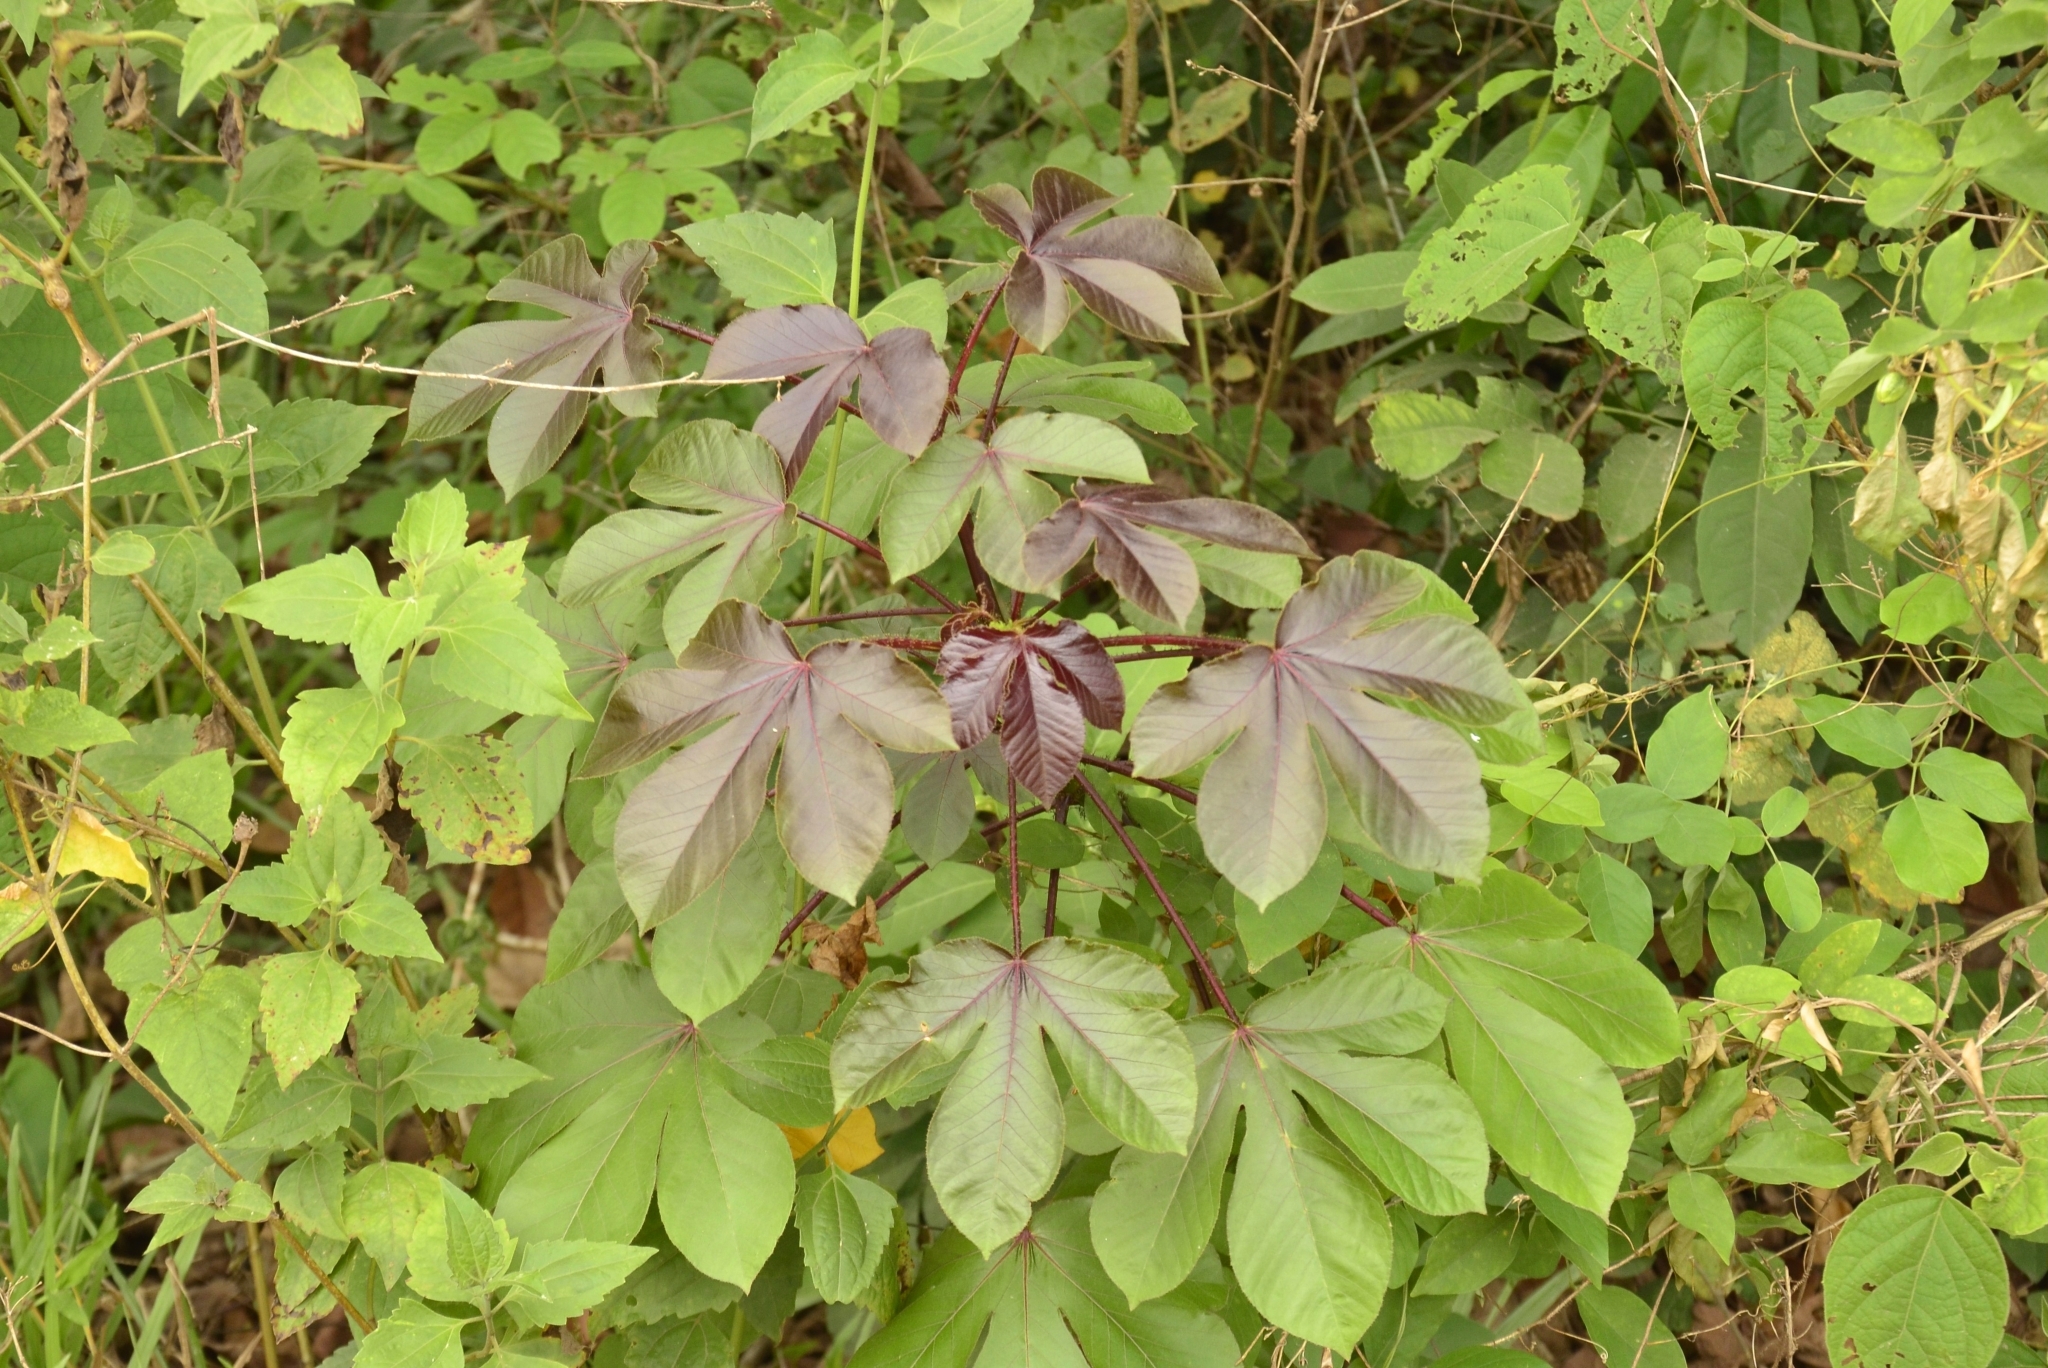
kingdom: Plantae
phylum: Tracheophyta
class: Magnoliopsida
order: Malpighiales
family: Euphorbiaceae
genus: Jatropha
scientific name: Jatropha gossypiifolia
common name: Bellyache bush
